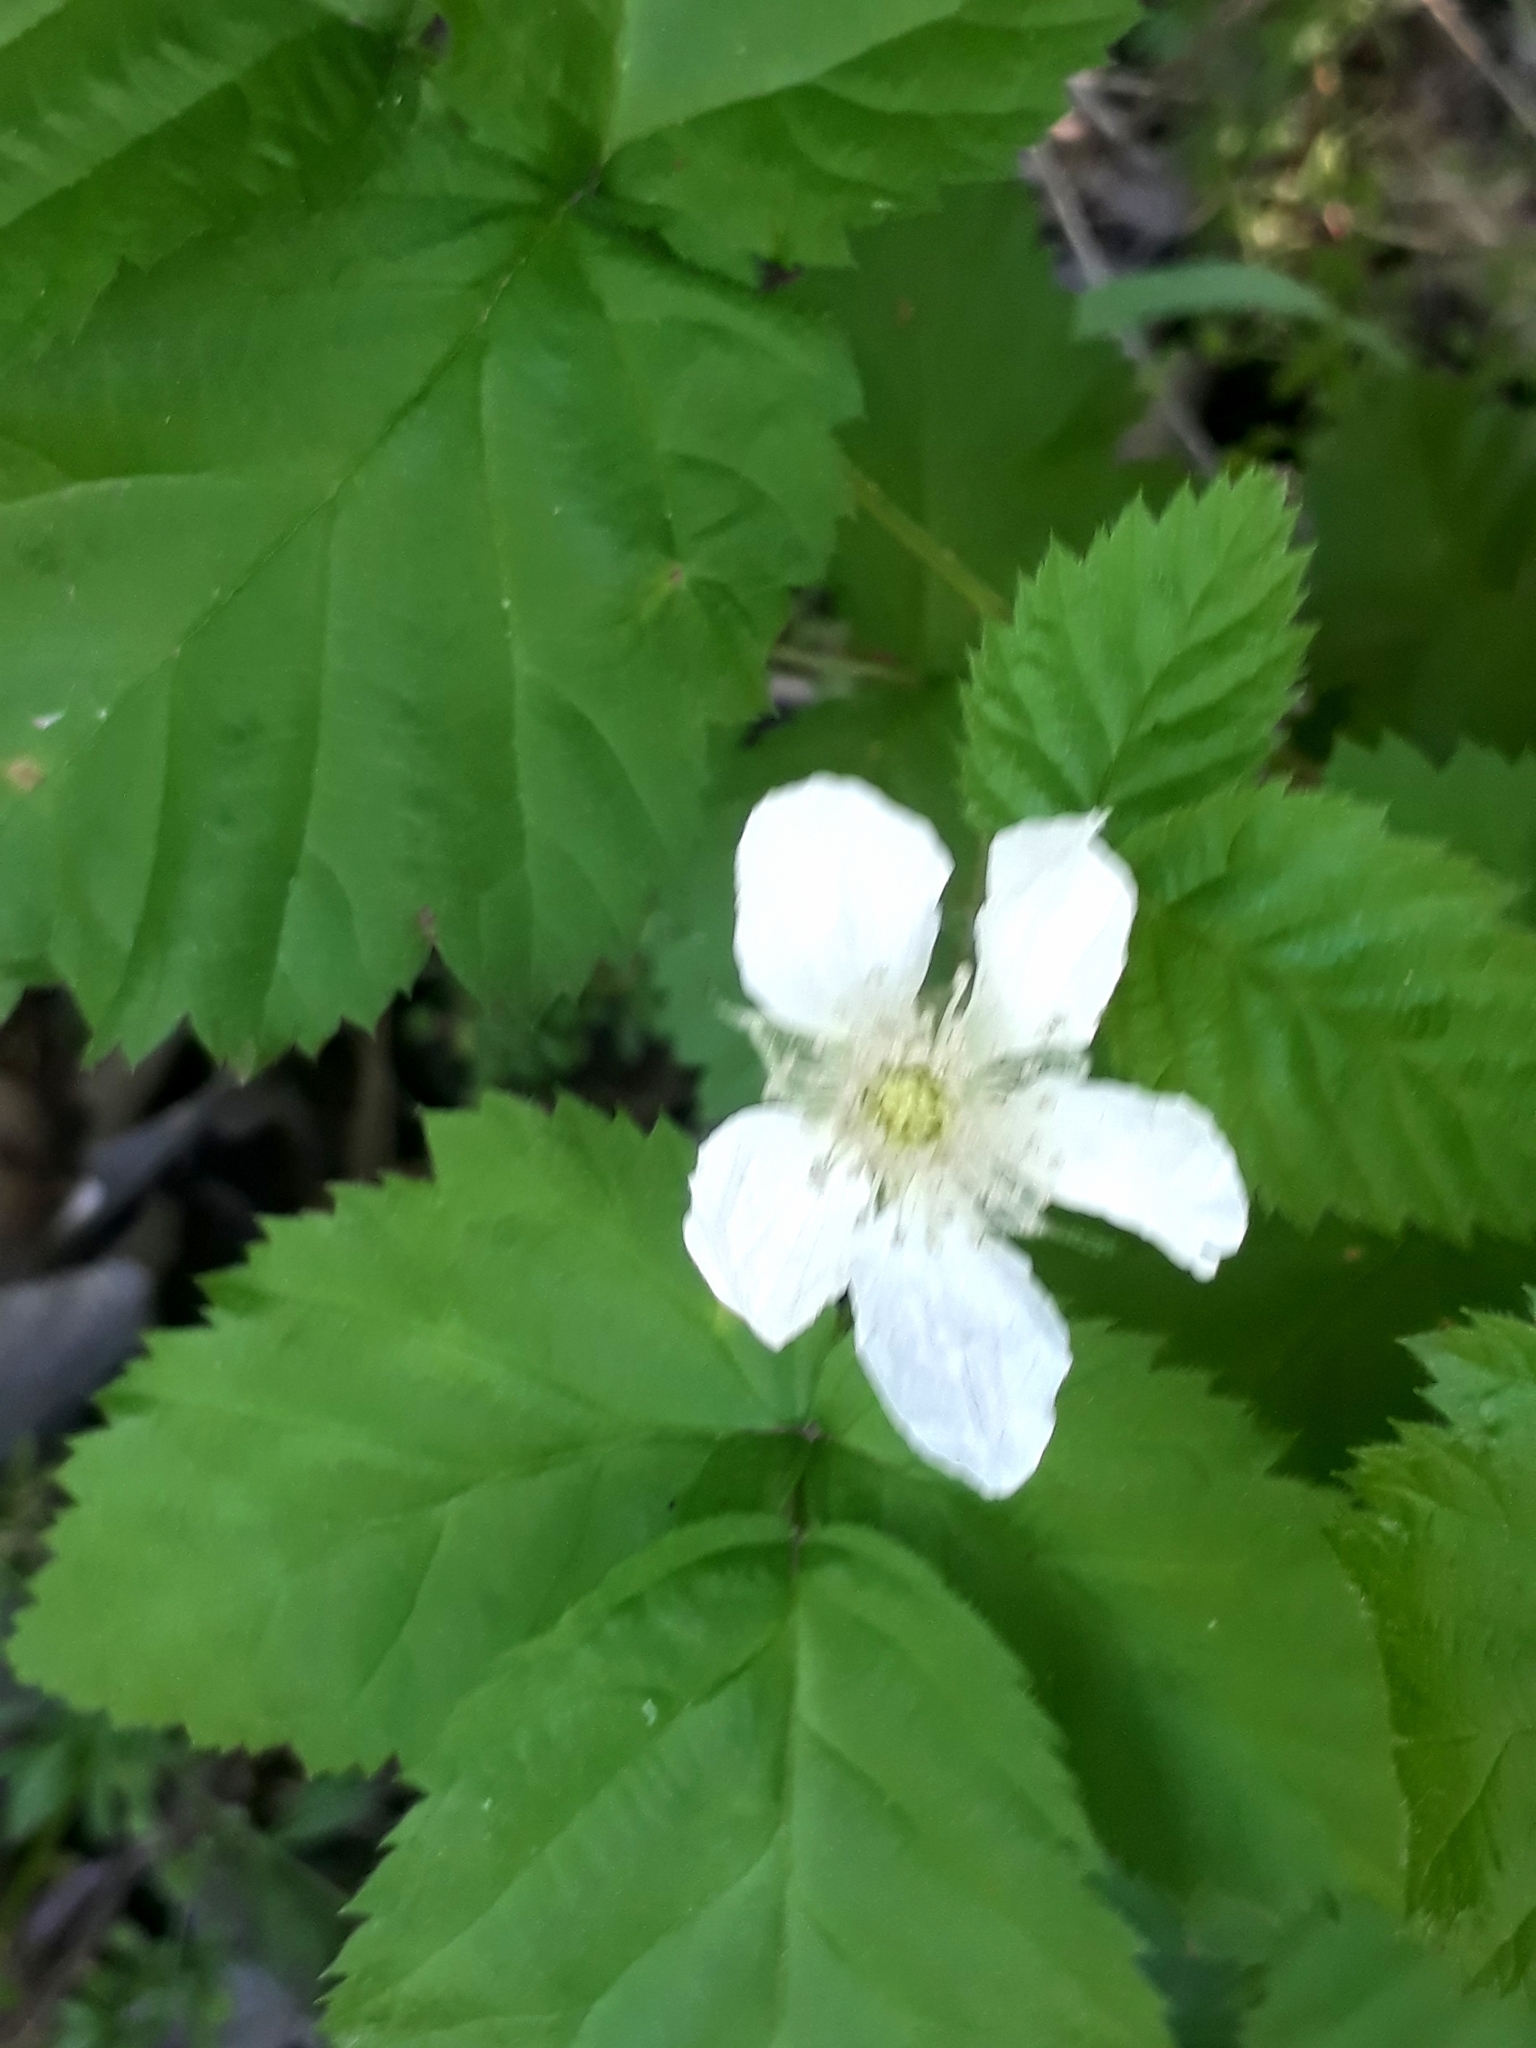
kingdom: Plantae
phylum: Tracheophyta
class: Magnoliopsida
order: Rosales
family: Rosaceae
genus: Rubus
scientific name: Rubus armeniacus
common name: Himalayan blackberry
